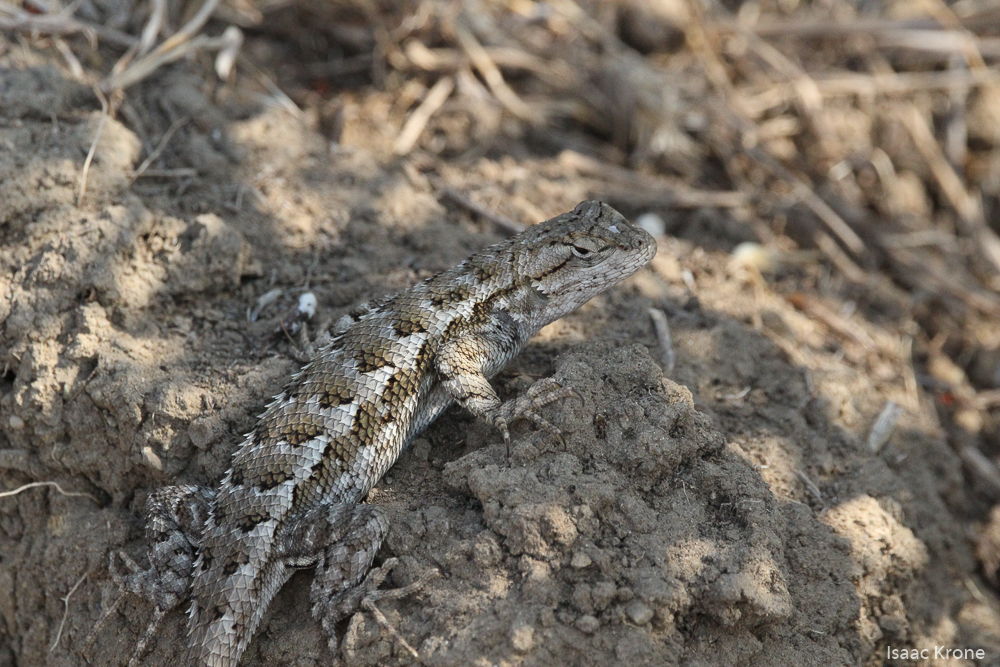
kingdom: Animalia
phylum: Chordata
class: Squamata
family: Phrynosomatidae
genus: Sceloporus
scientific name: Sceloporus occidentalis
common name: Western fence lizard
